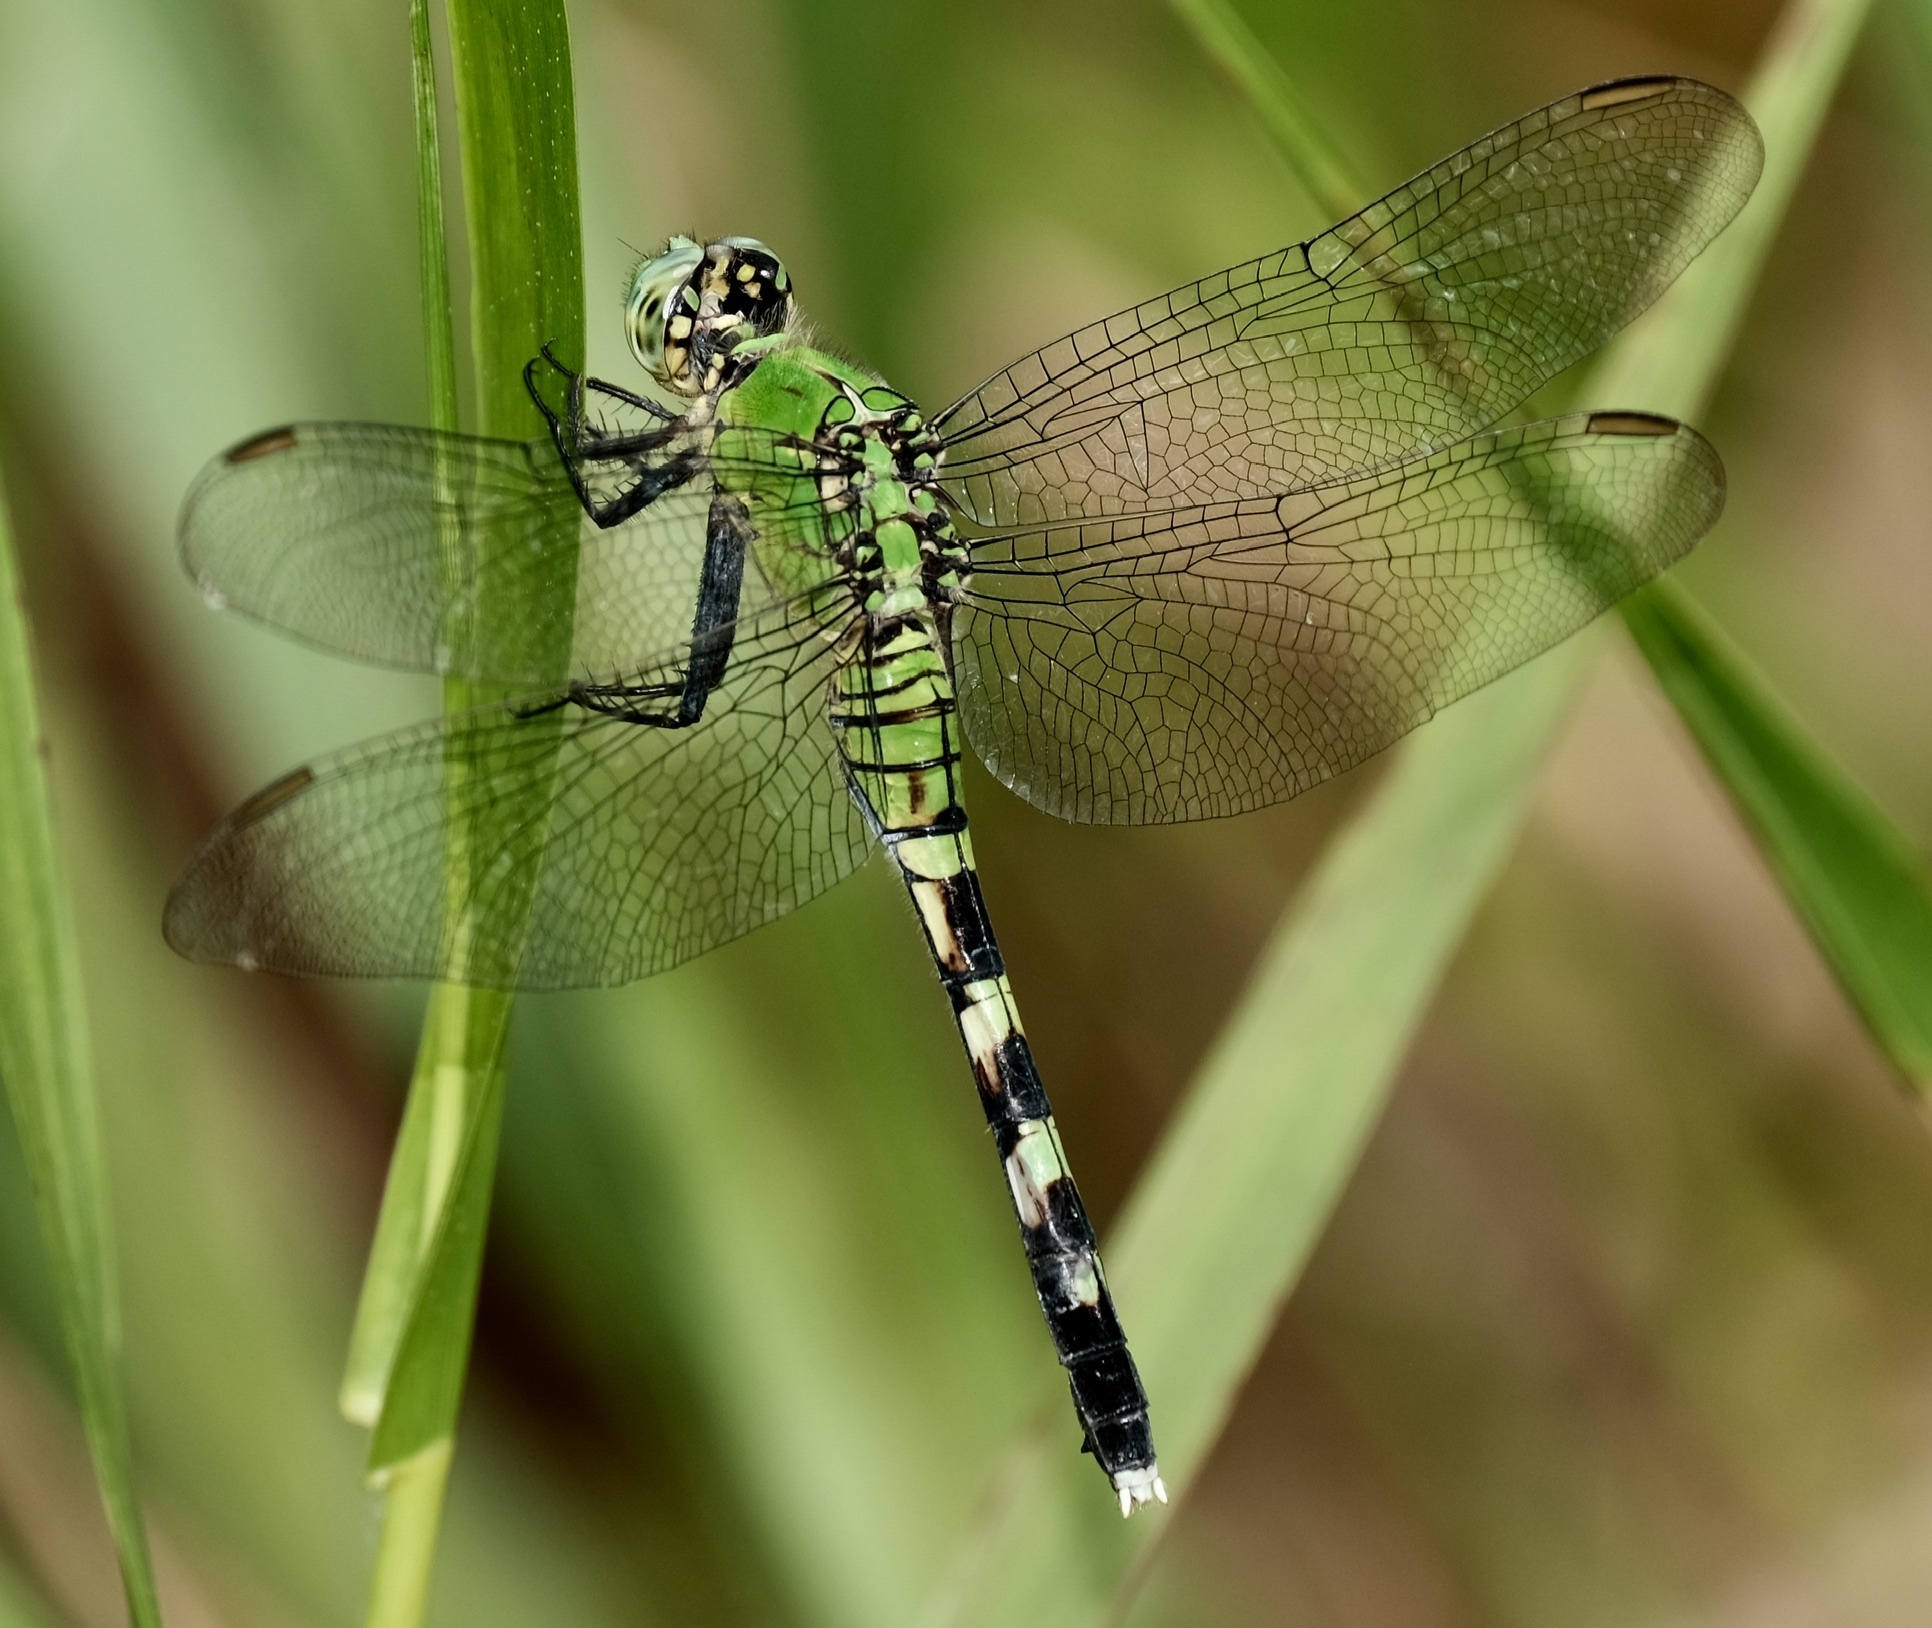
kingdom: Animalia
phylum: Arthropoda
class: Insecta
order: Odonata
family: Libellulidae
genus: Erythemis
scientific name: Erythemis simplicicollis
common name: Eastern pondhawk
